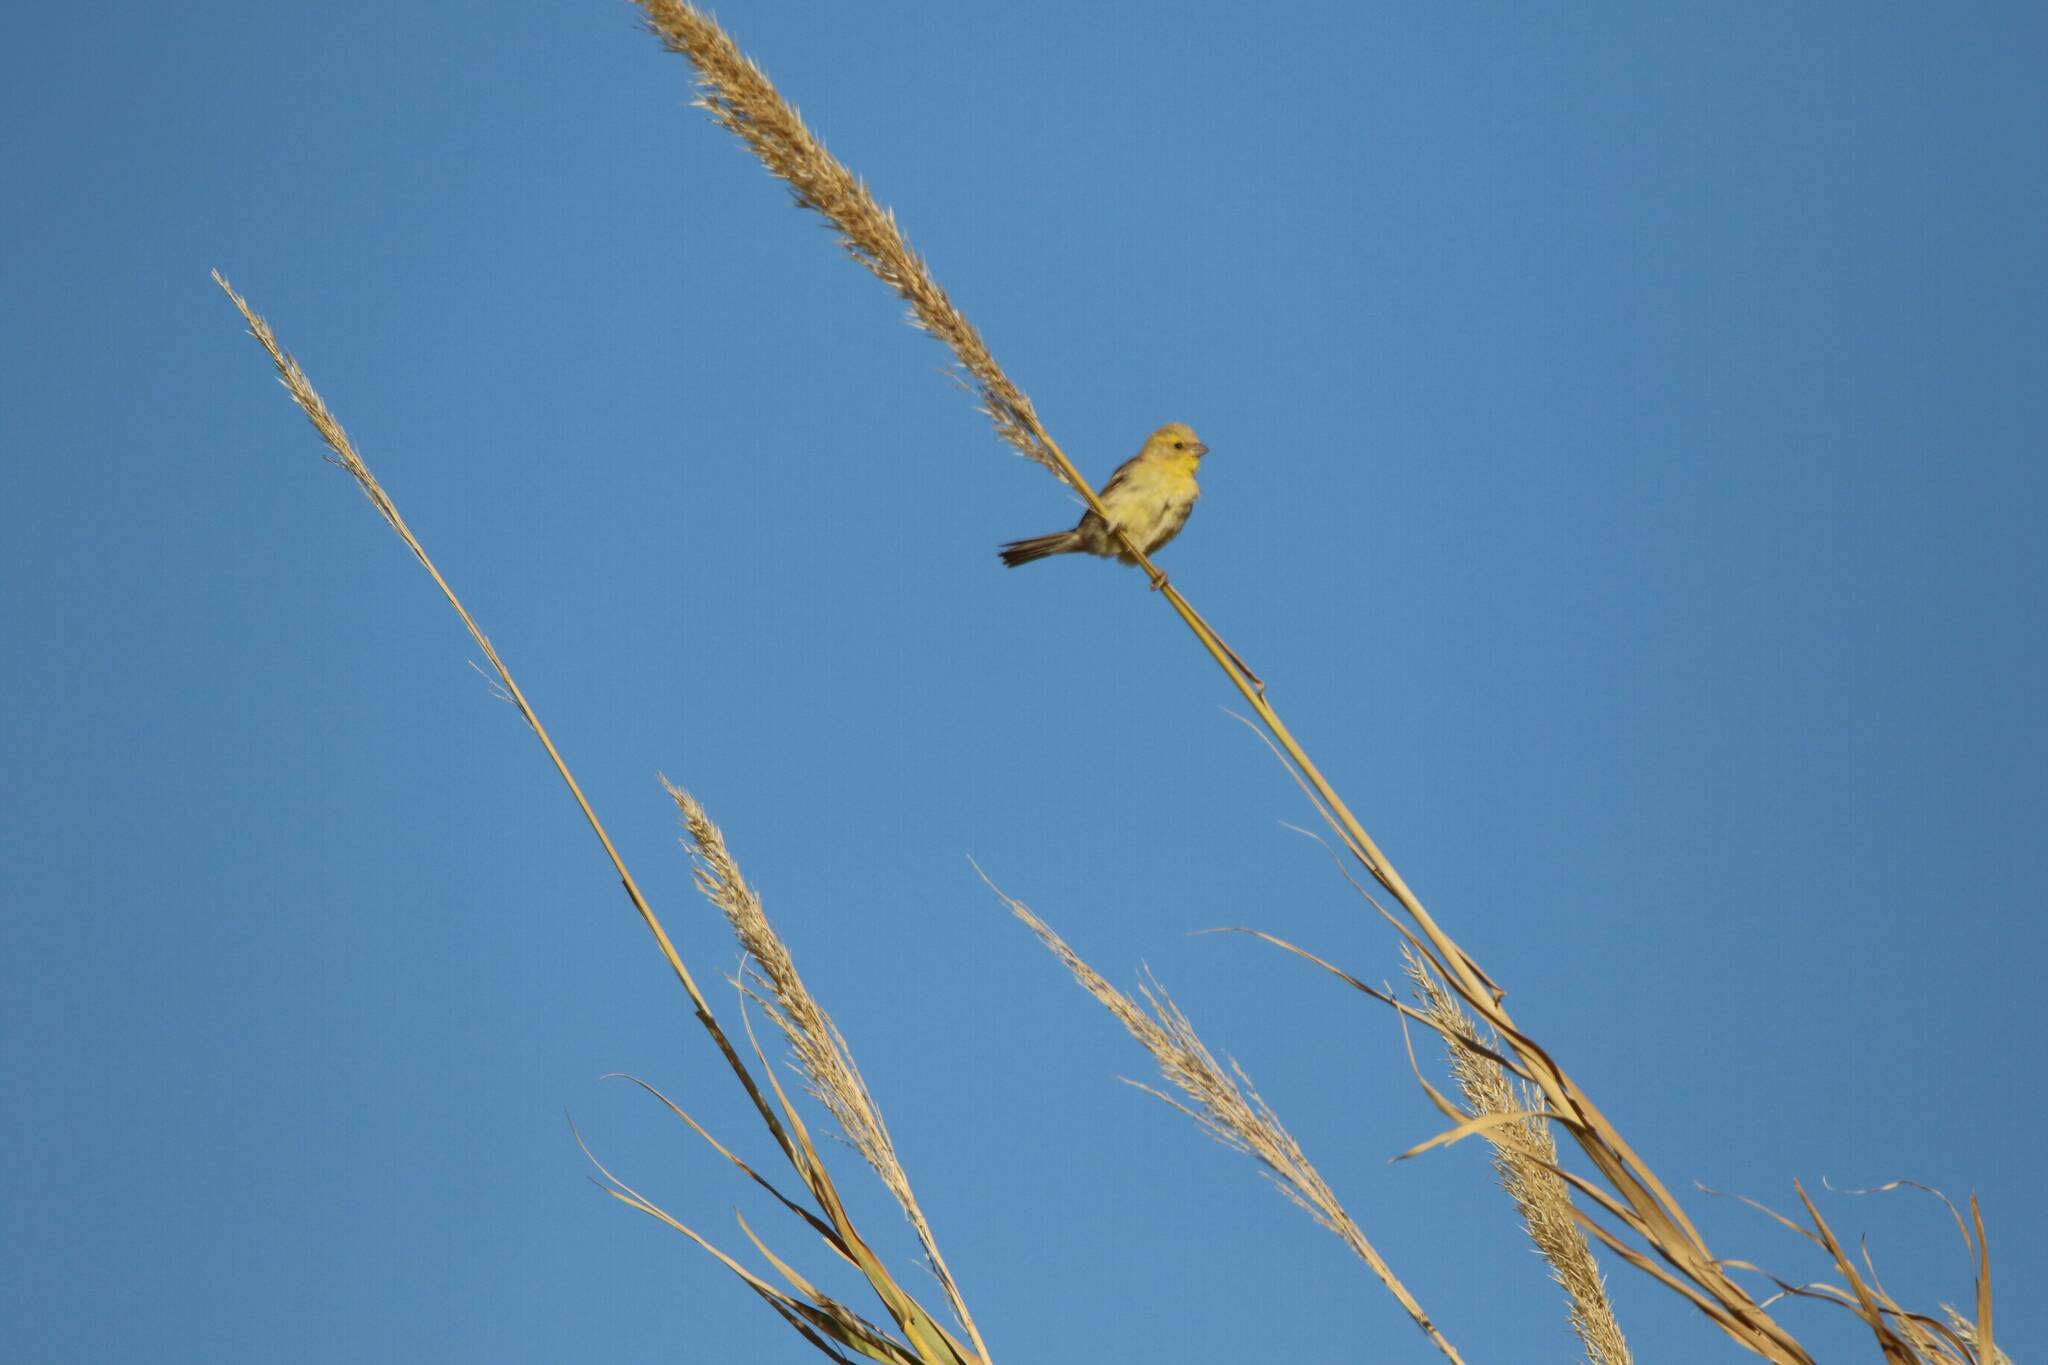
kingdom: Animalia
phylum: Chordata
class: Aves
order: Passeriformes
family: Passeridae
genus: Passer
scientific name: Passer luteus
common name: Sudan golden sparrow
